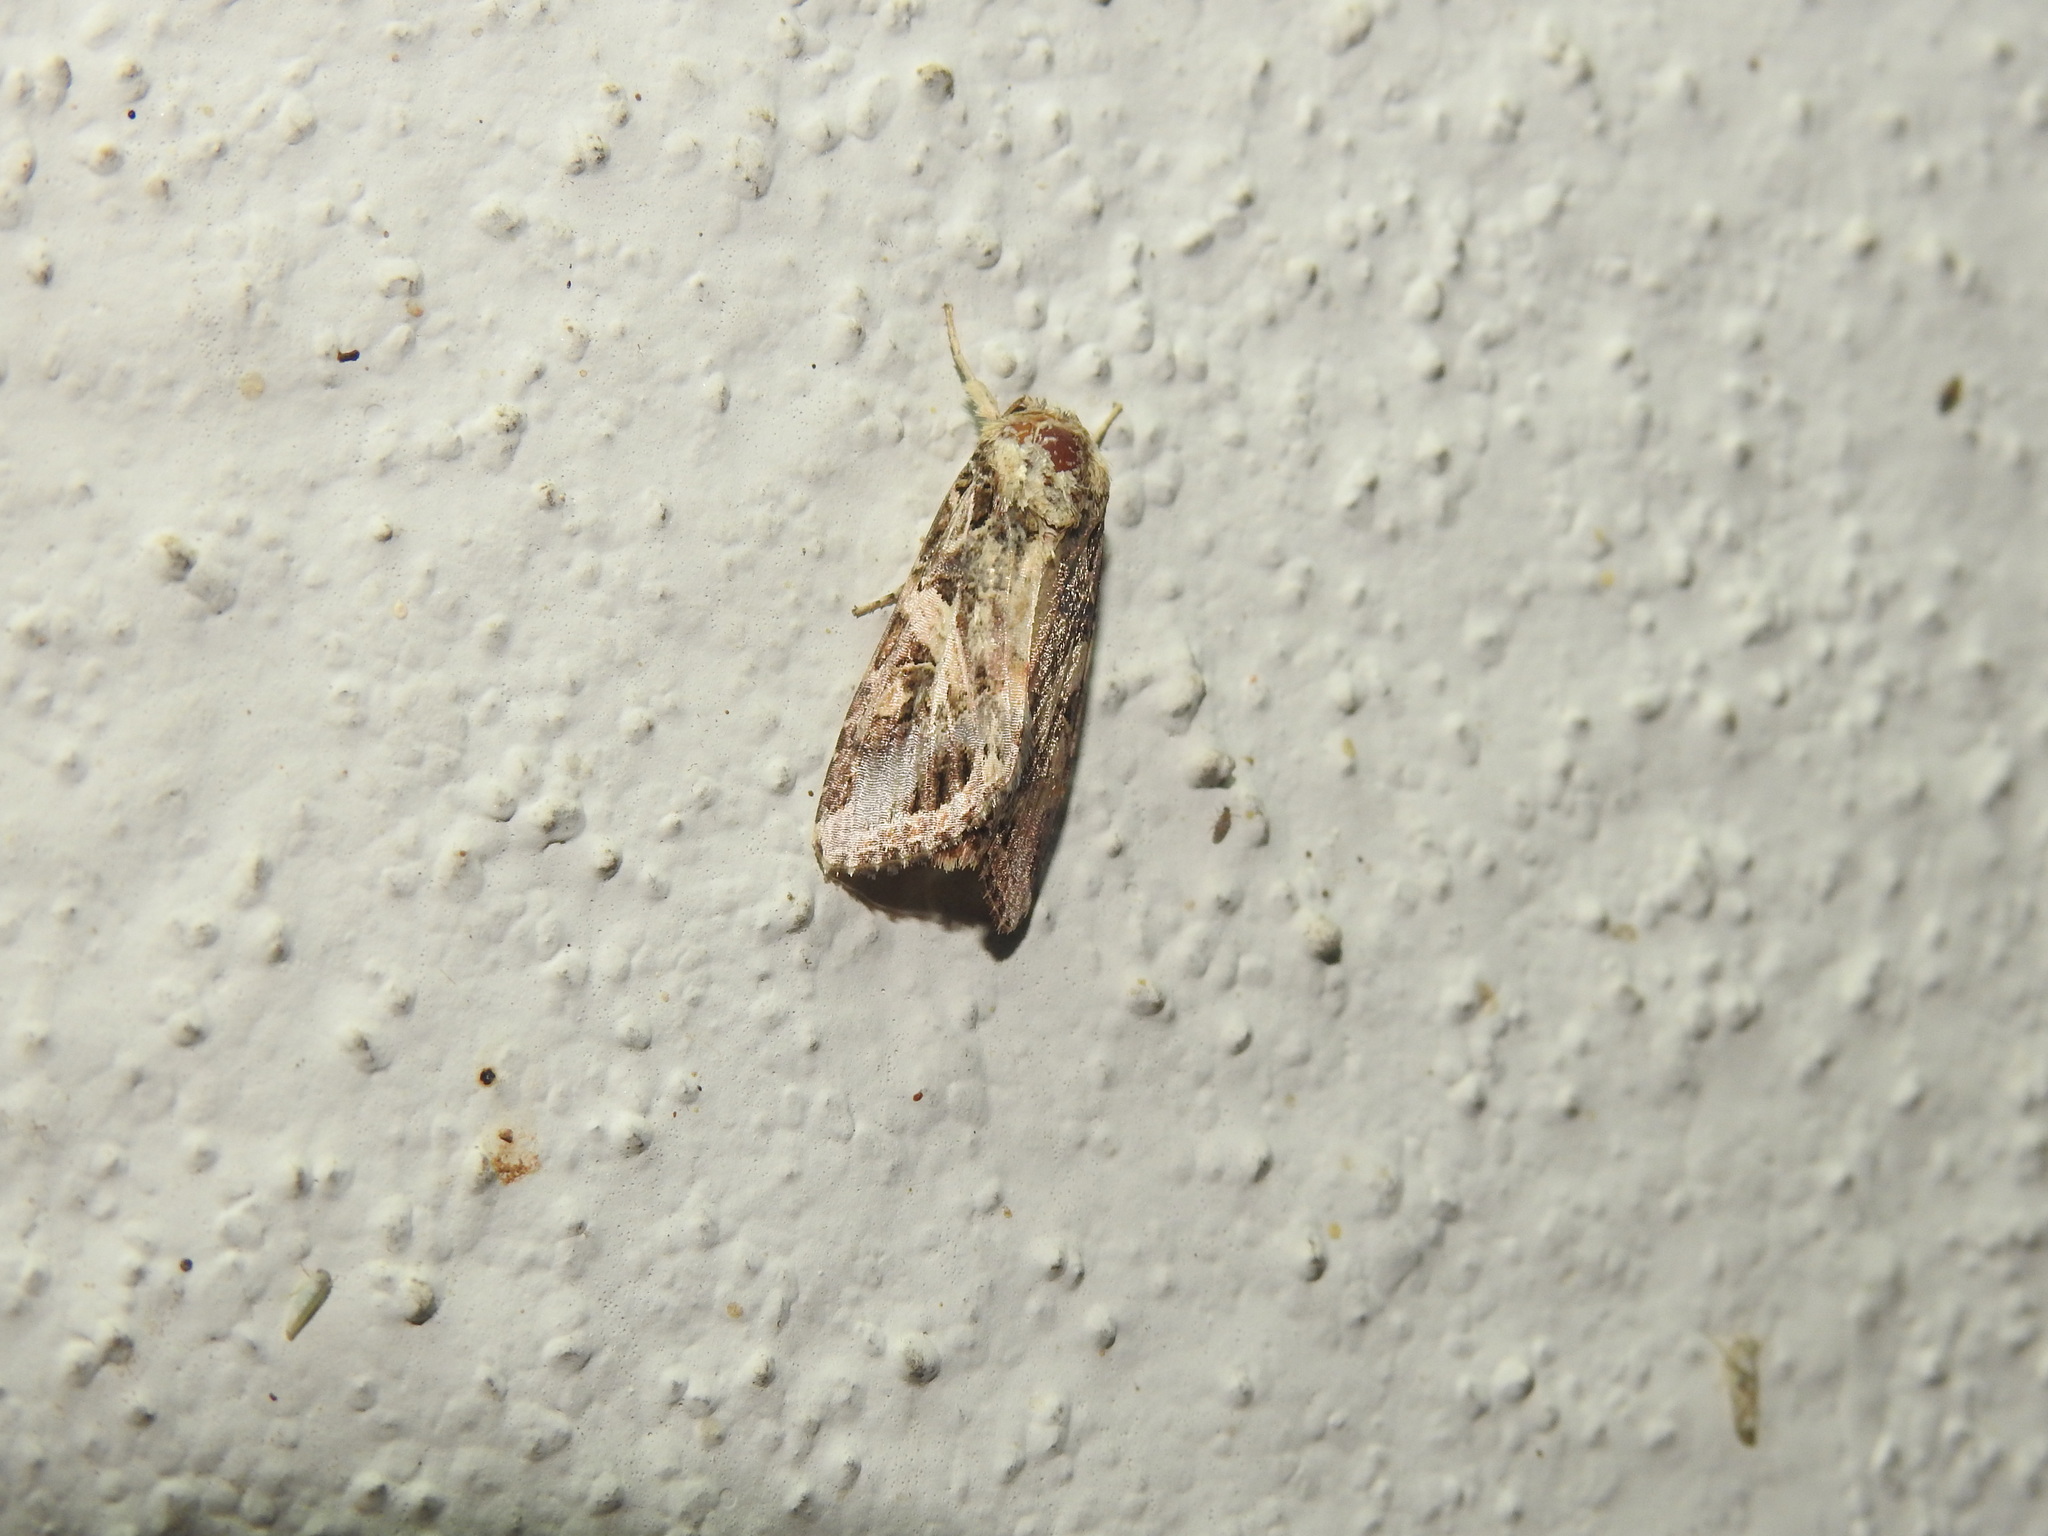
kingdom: Animalia
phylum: Arthropoda
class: Insecta
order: Lepidoptera
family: Noctuidae
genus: Spodoptera
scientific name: Spodoptera litura
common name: Asian cotton leafworm
